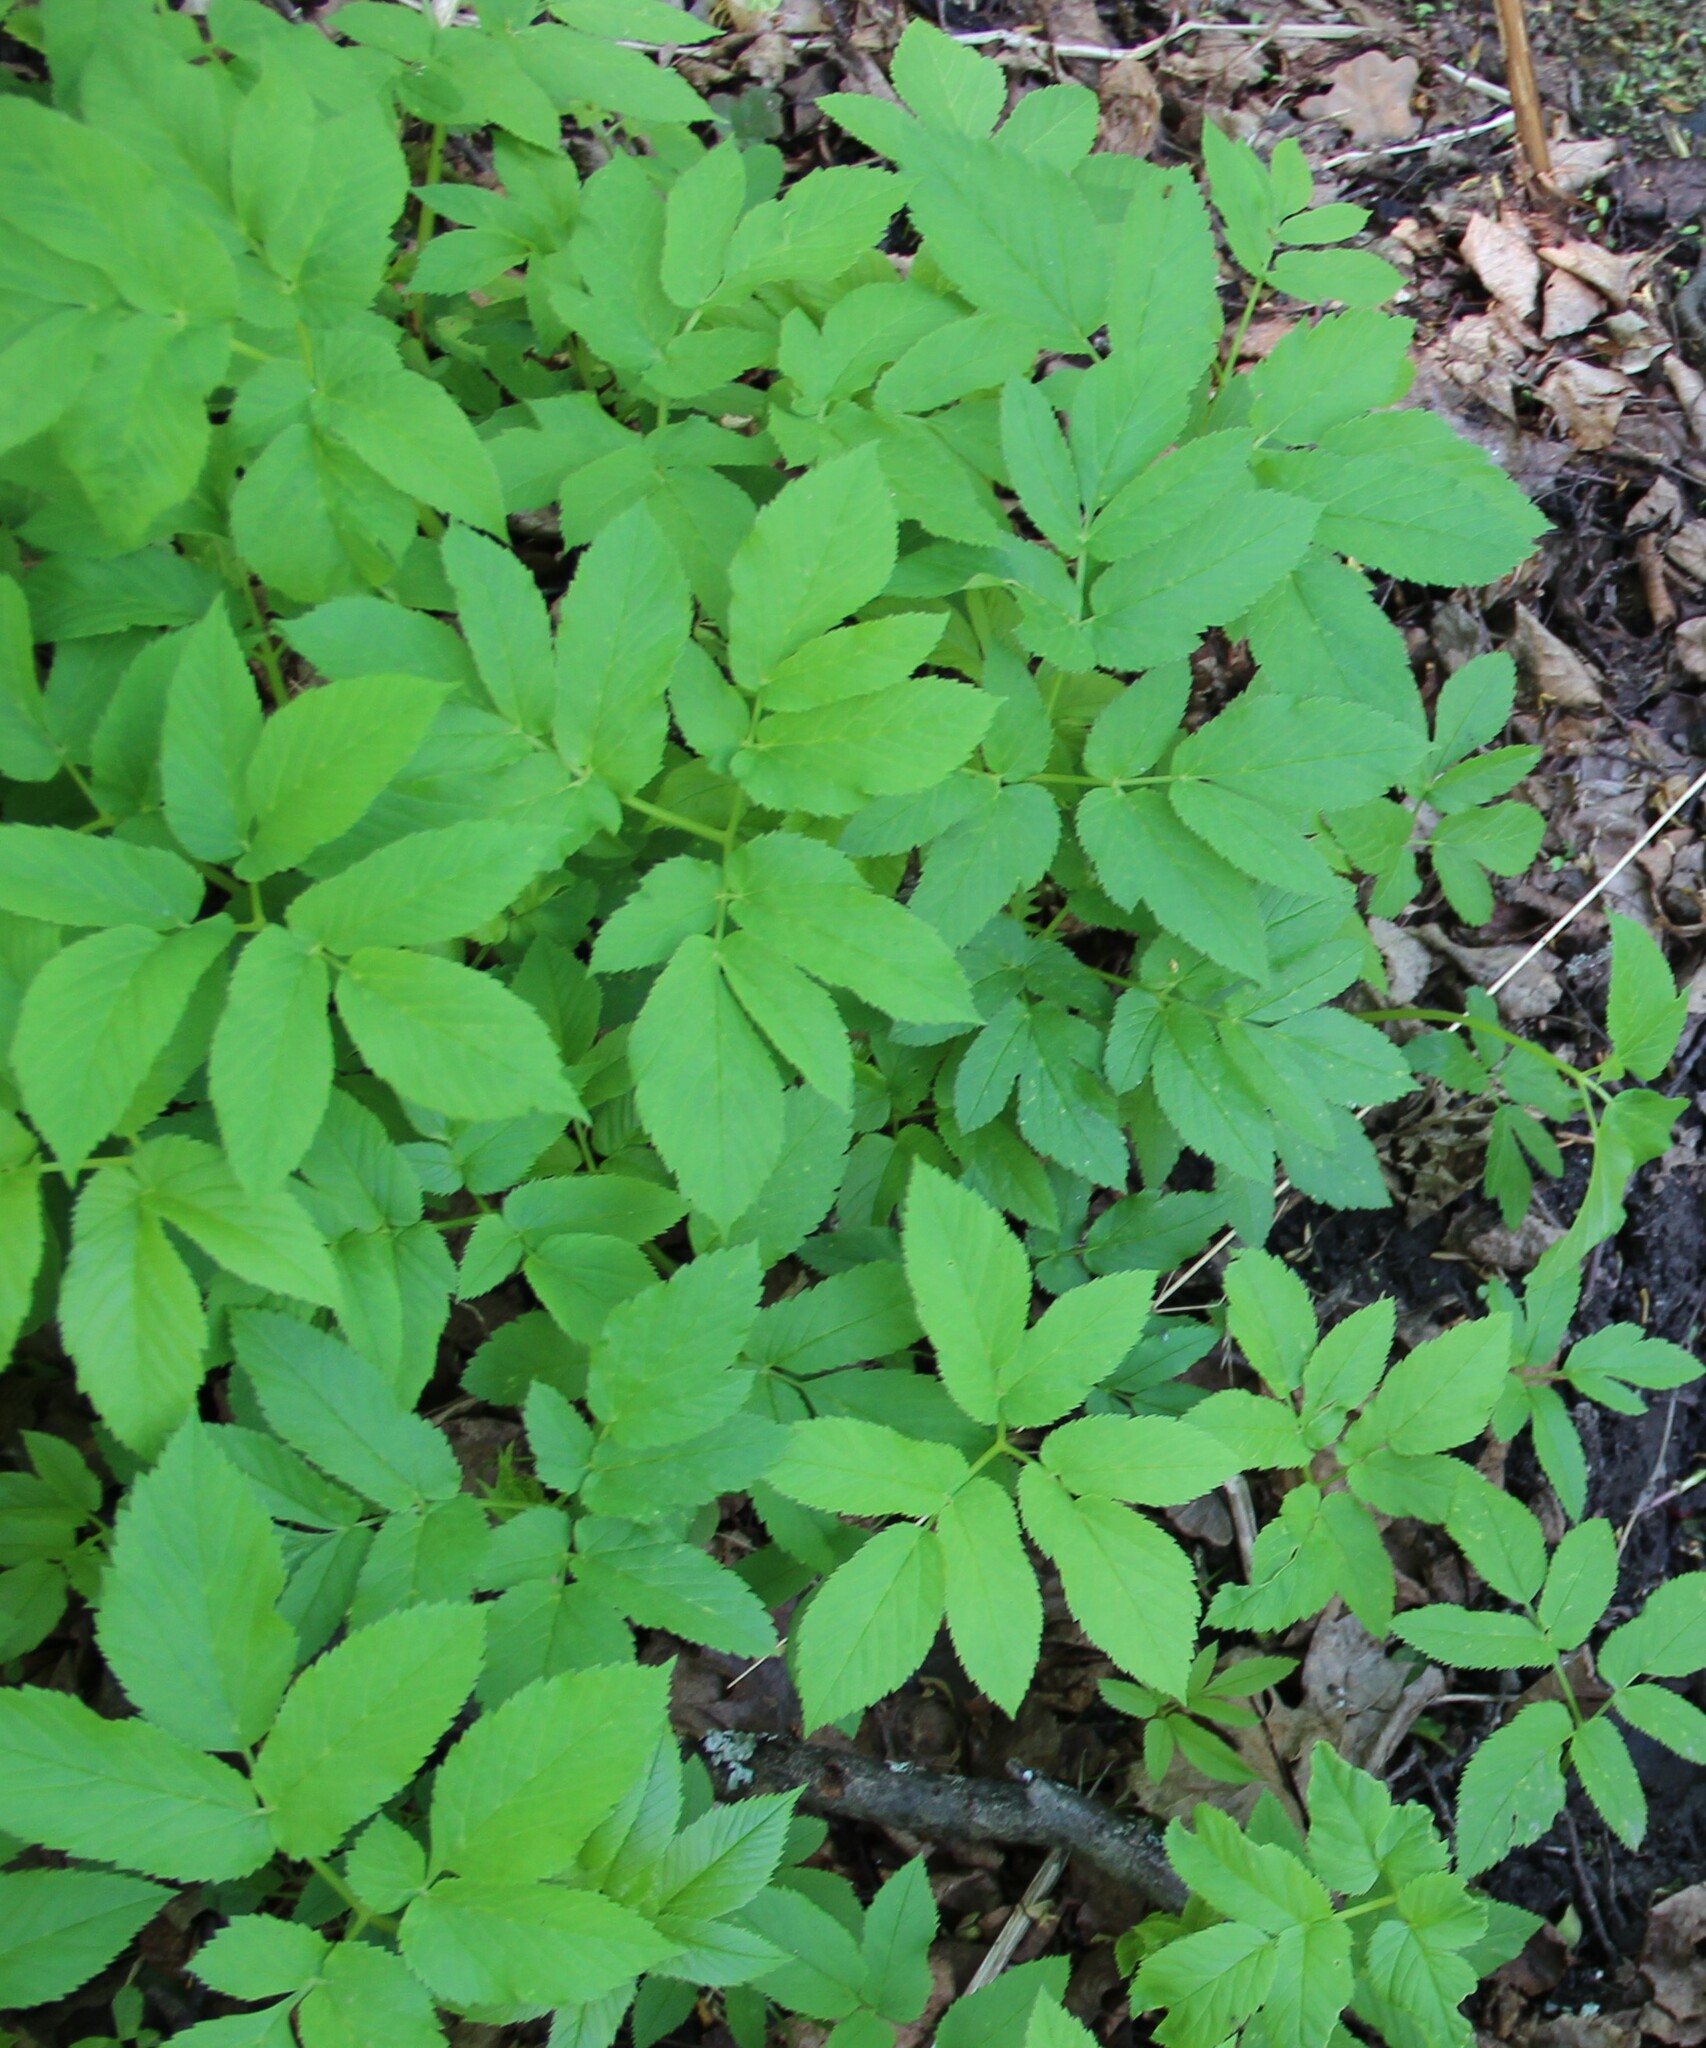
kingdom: Plantae
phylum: Tracheophyta
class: Magnoliopsida
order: Apiales
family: Apiaceae
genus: Aegopodium
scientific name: Aegopodium podagraria
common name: Ground-elder
